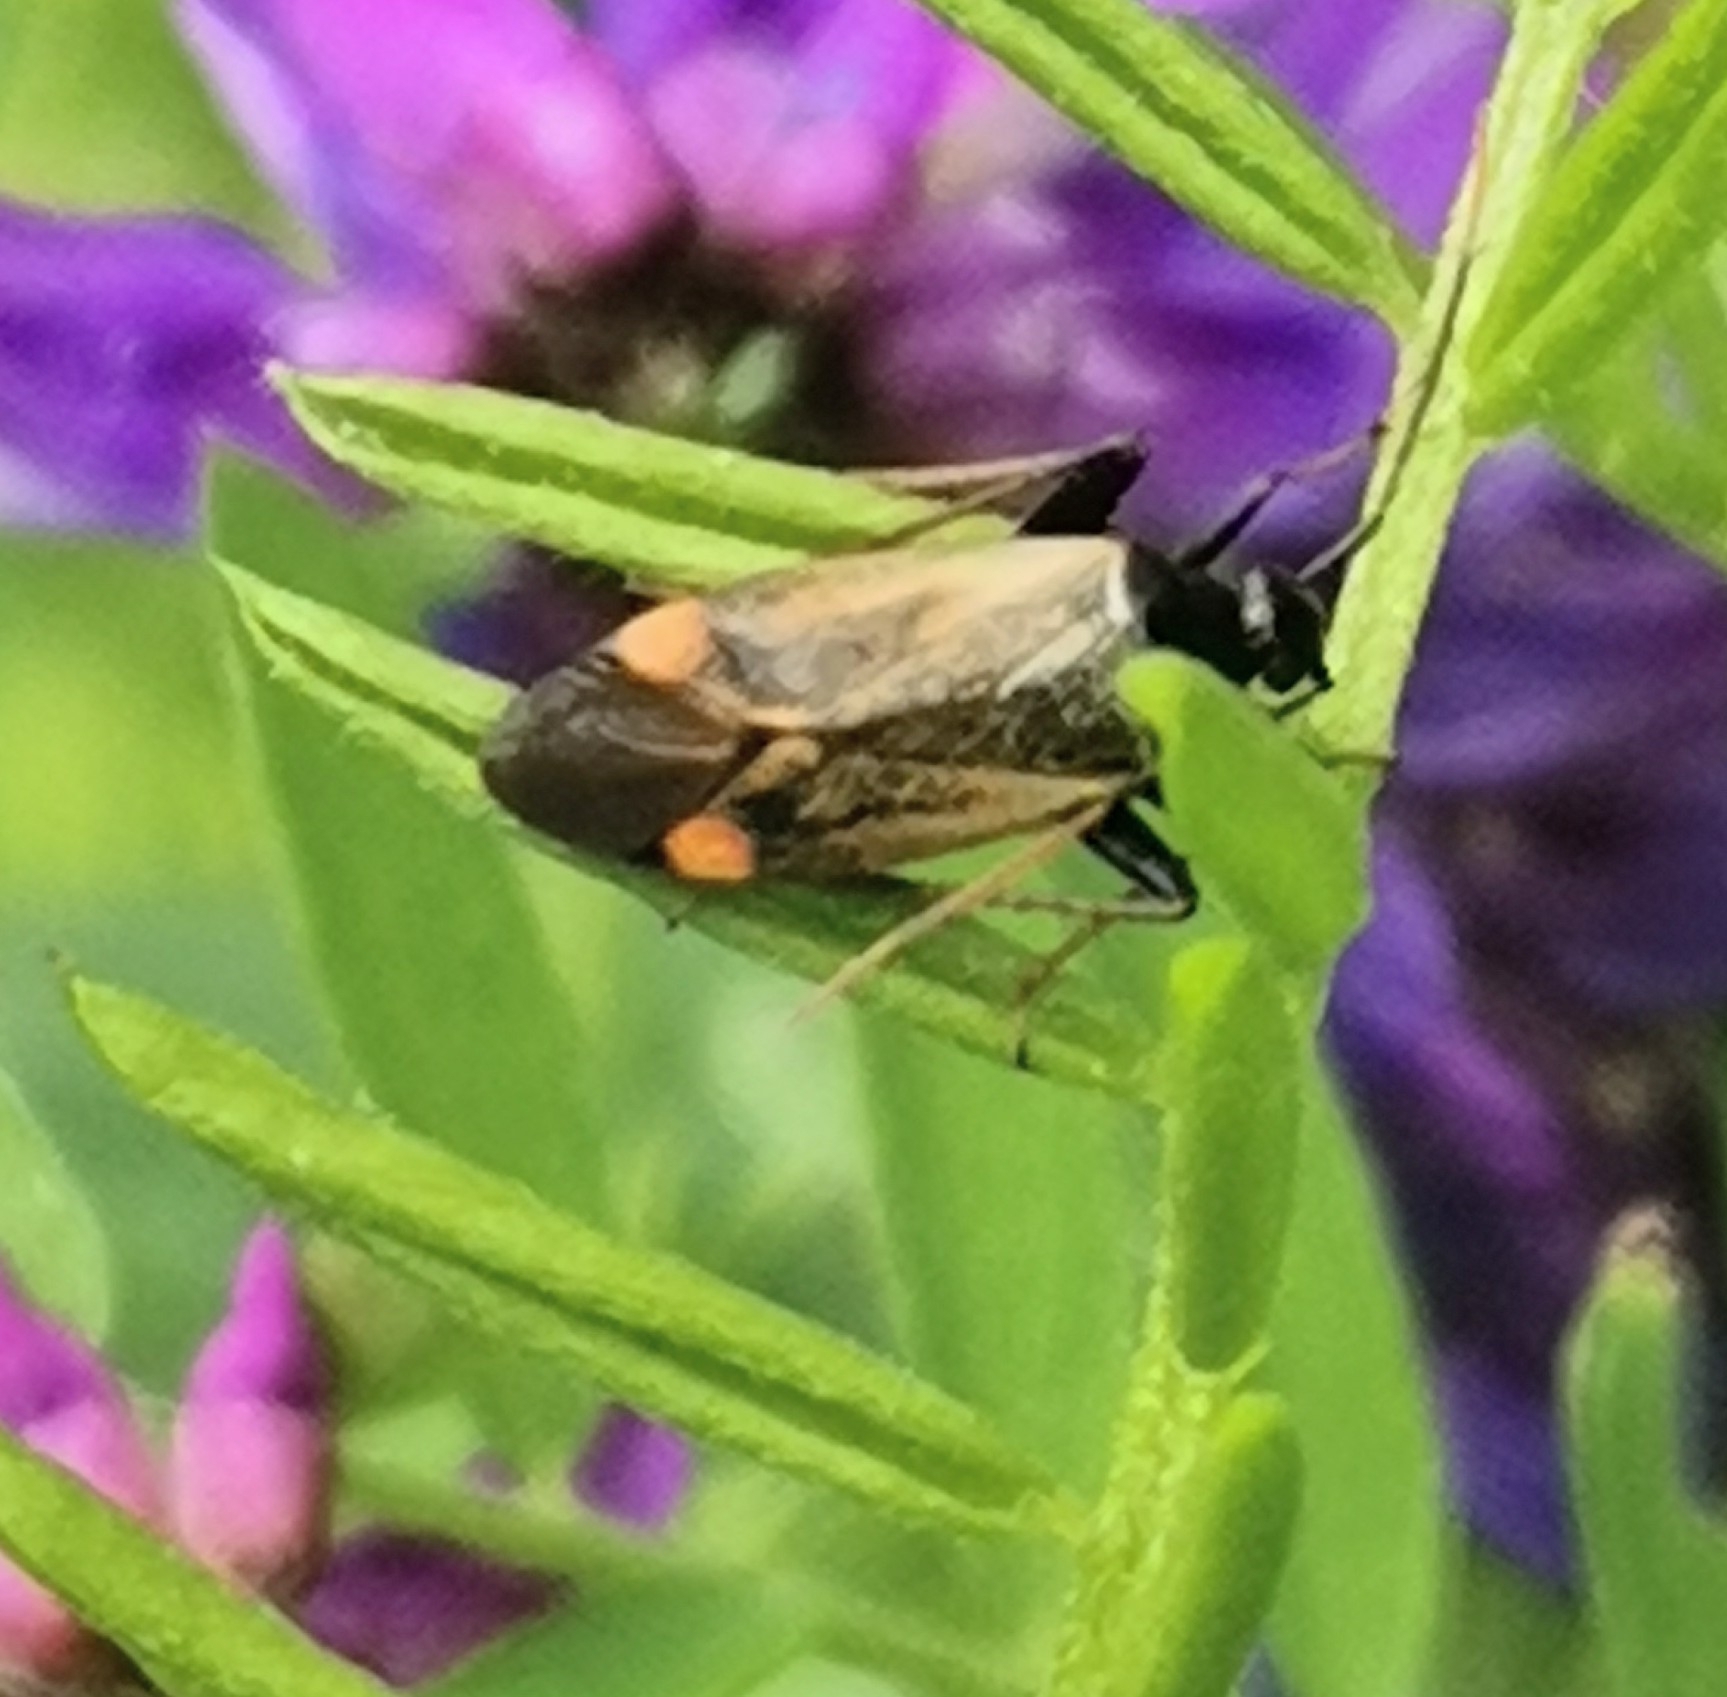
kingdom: Animalia
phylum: Arthropoda
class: Insecta
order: Hemiptera
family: Miridae
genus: Adelphocoris
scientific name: Adelphocoris seticornis
